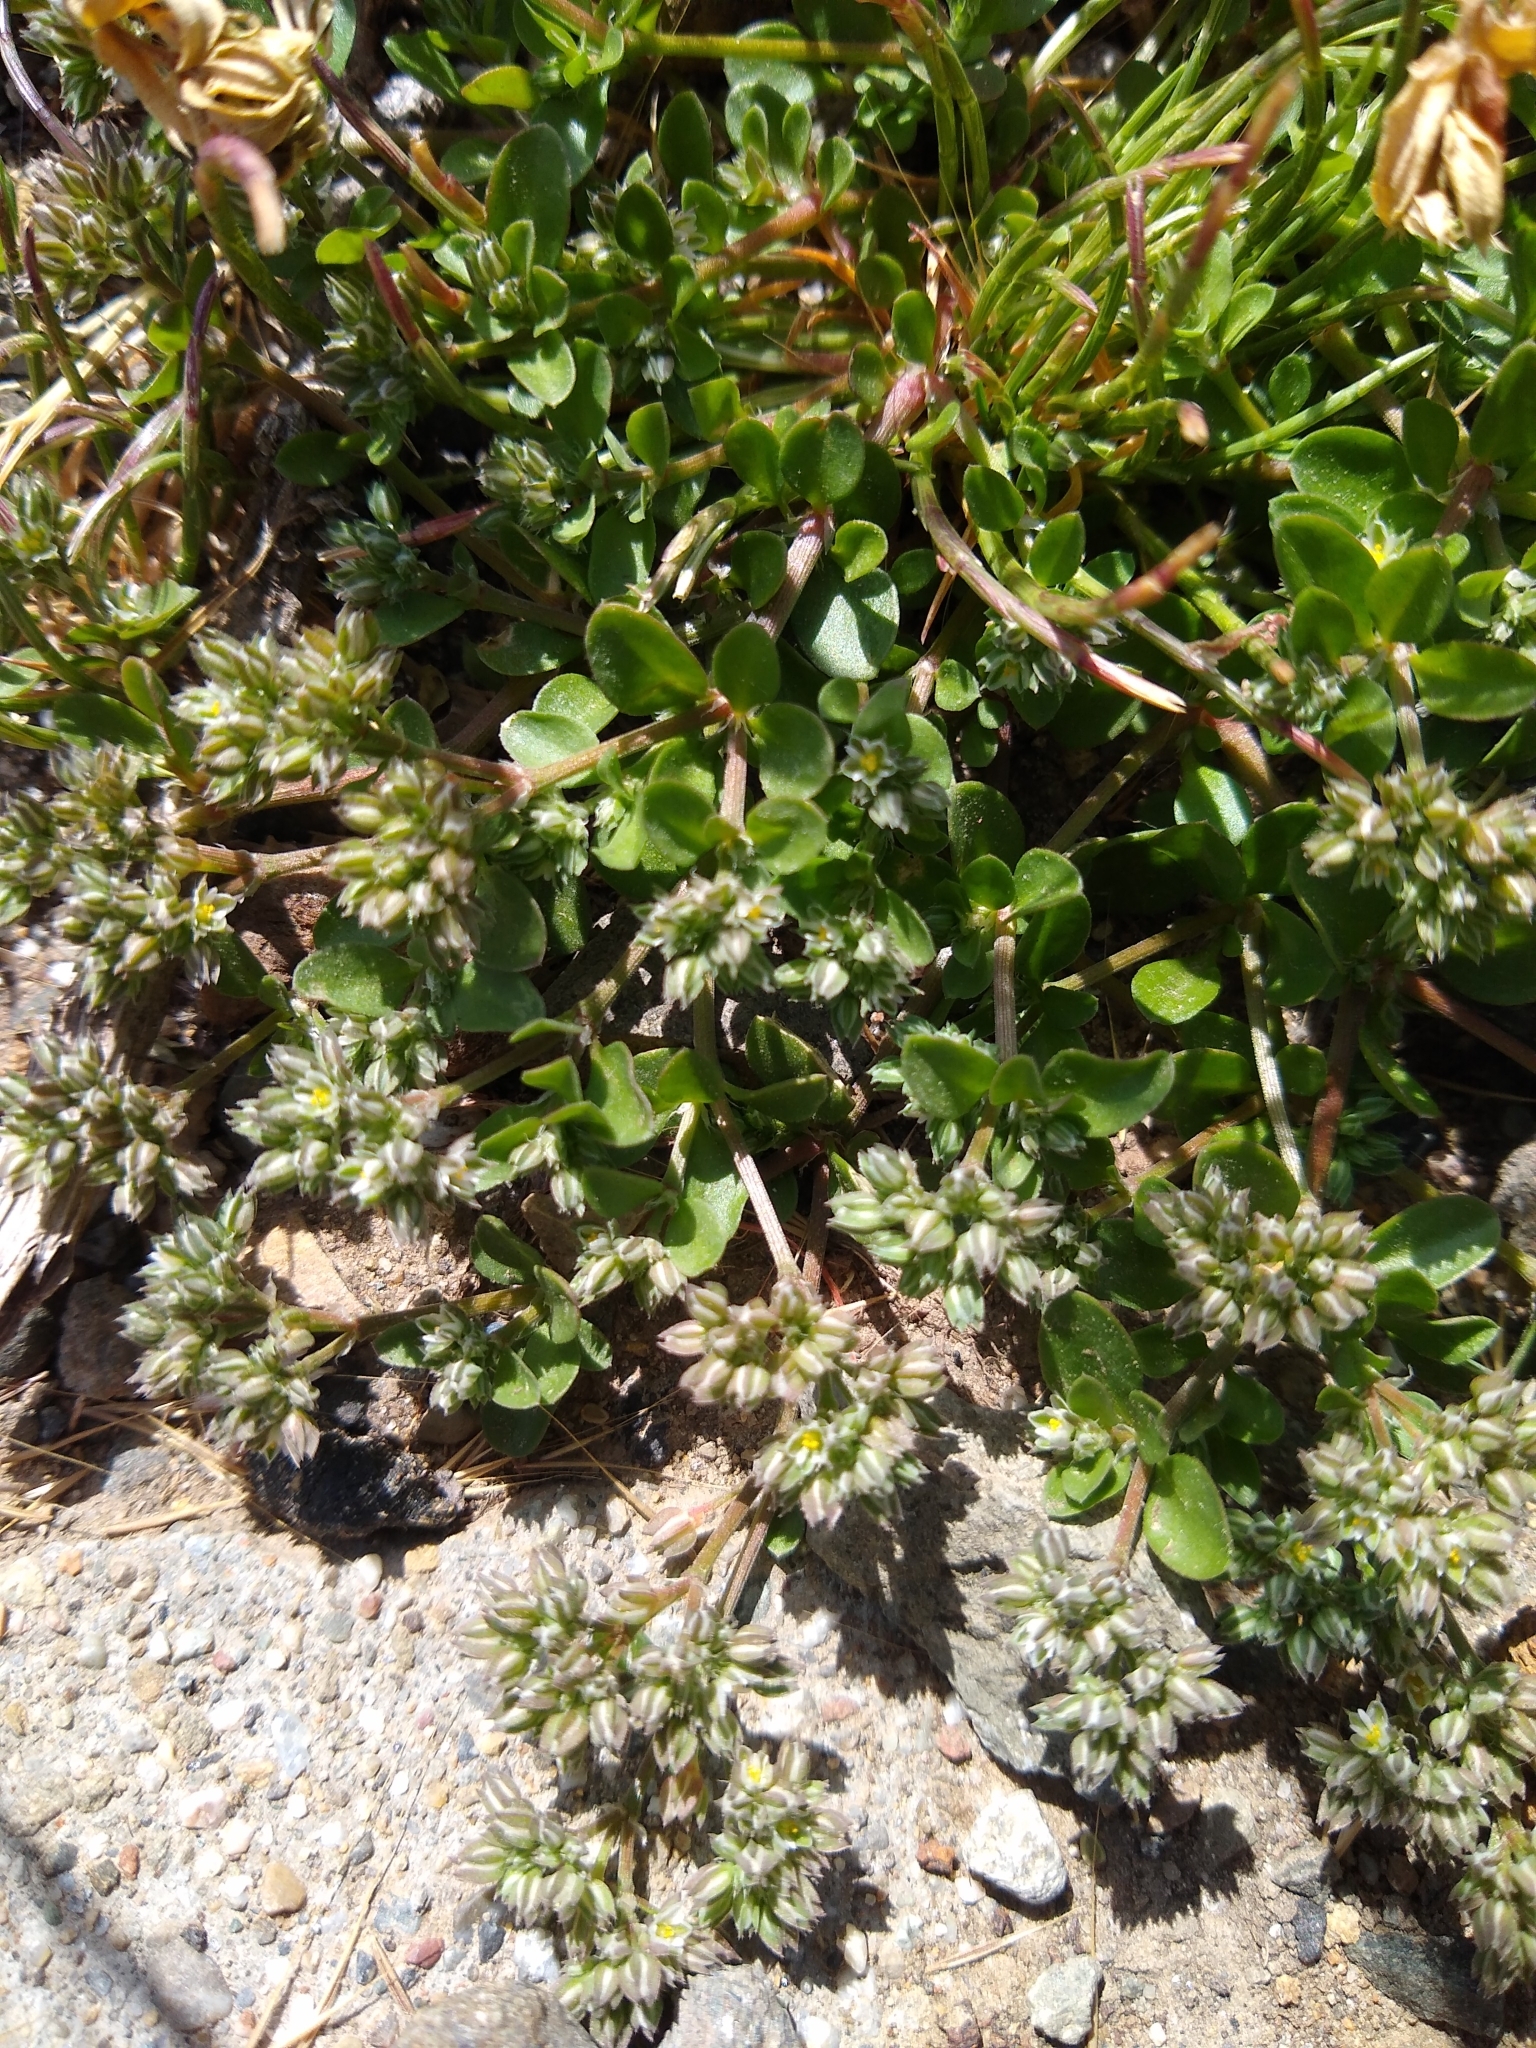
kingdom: Plantae
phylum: Tracheophyta
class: Magnoliopsida
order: Caryophyllales
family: Caryophyllaceae
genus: Polycarpon
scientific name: Polycarpon tetraphyllum
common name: Four-leaved all-seed
